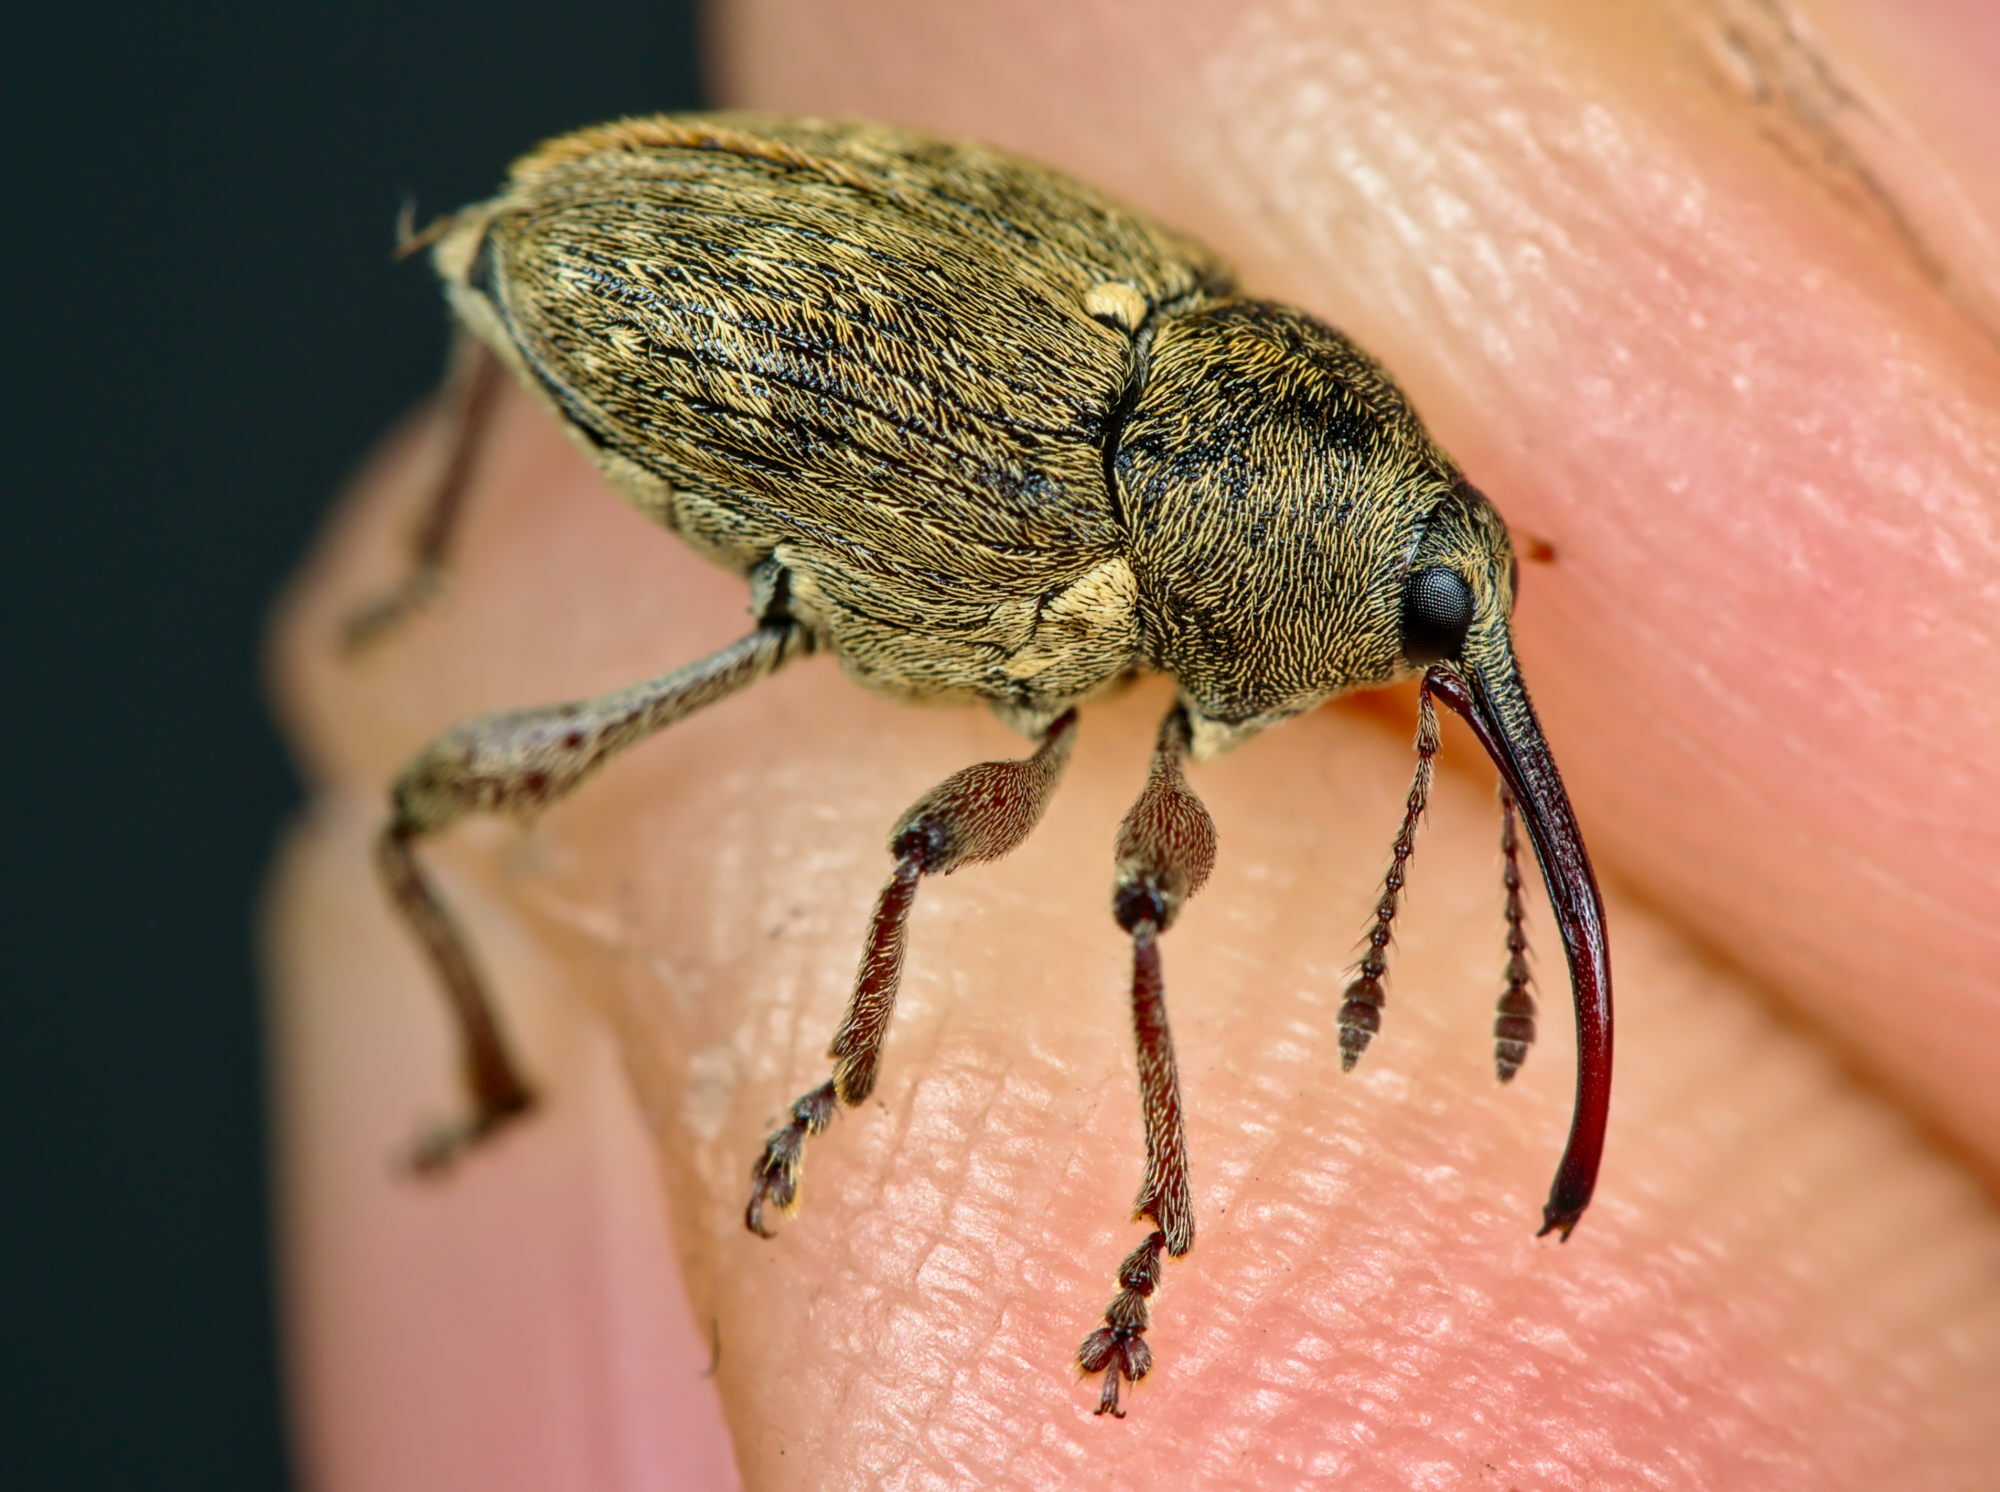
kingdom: Animalia
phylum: Arthropoda
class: Insecta
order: Coleoptera
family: Curculionidae
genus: Curculio
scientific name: Curculio nucum
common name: Nut weevil
